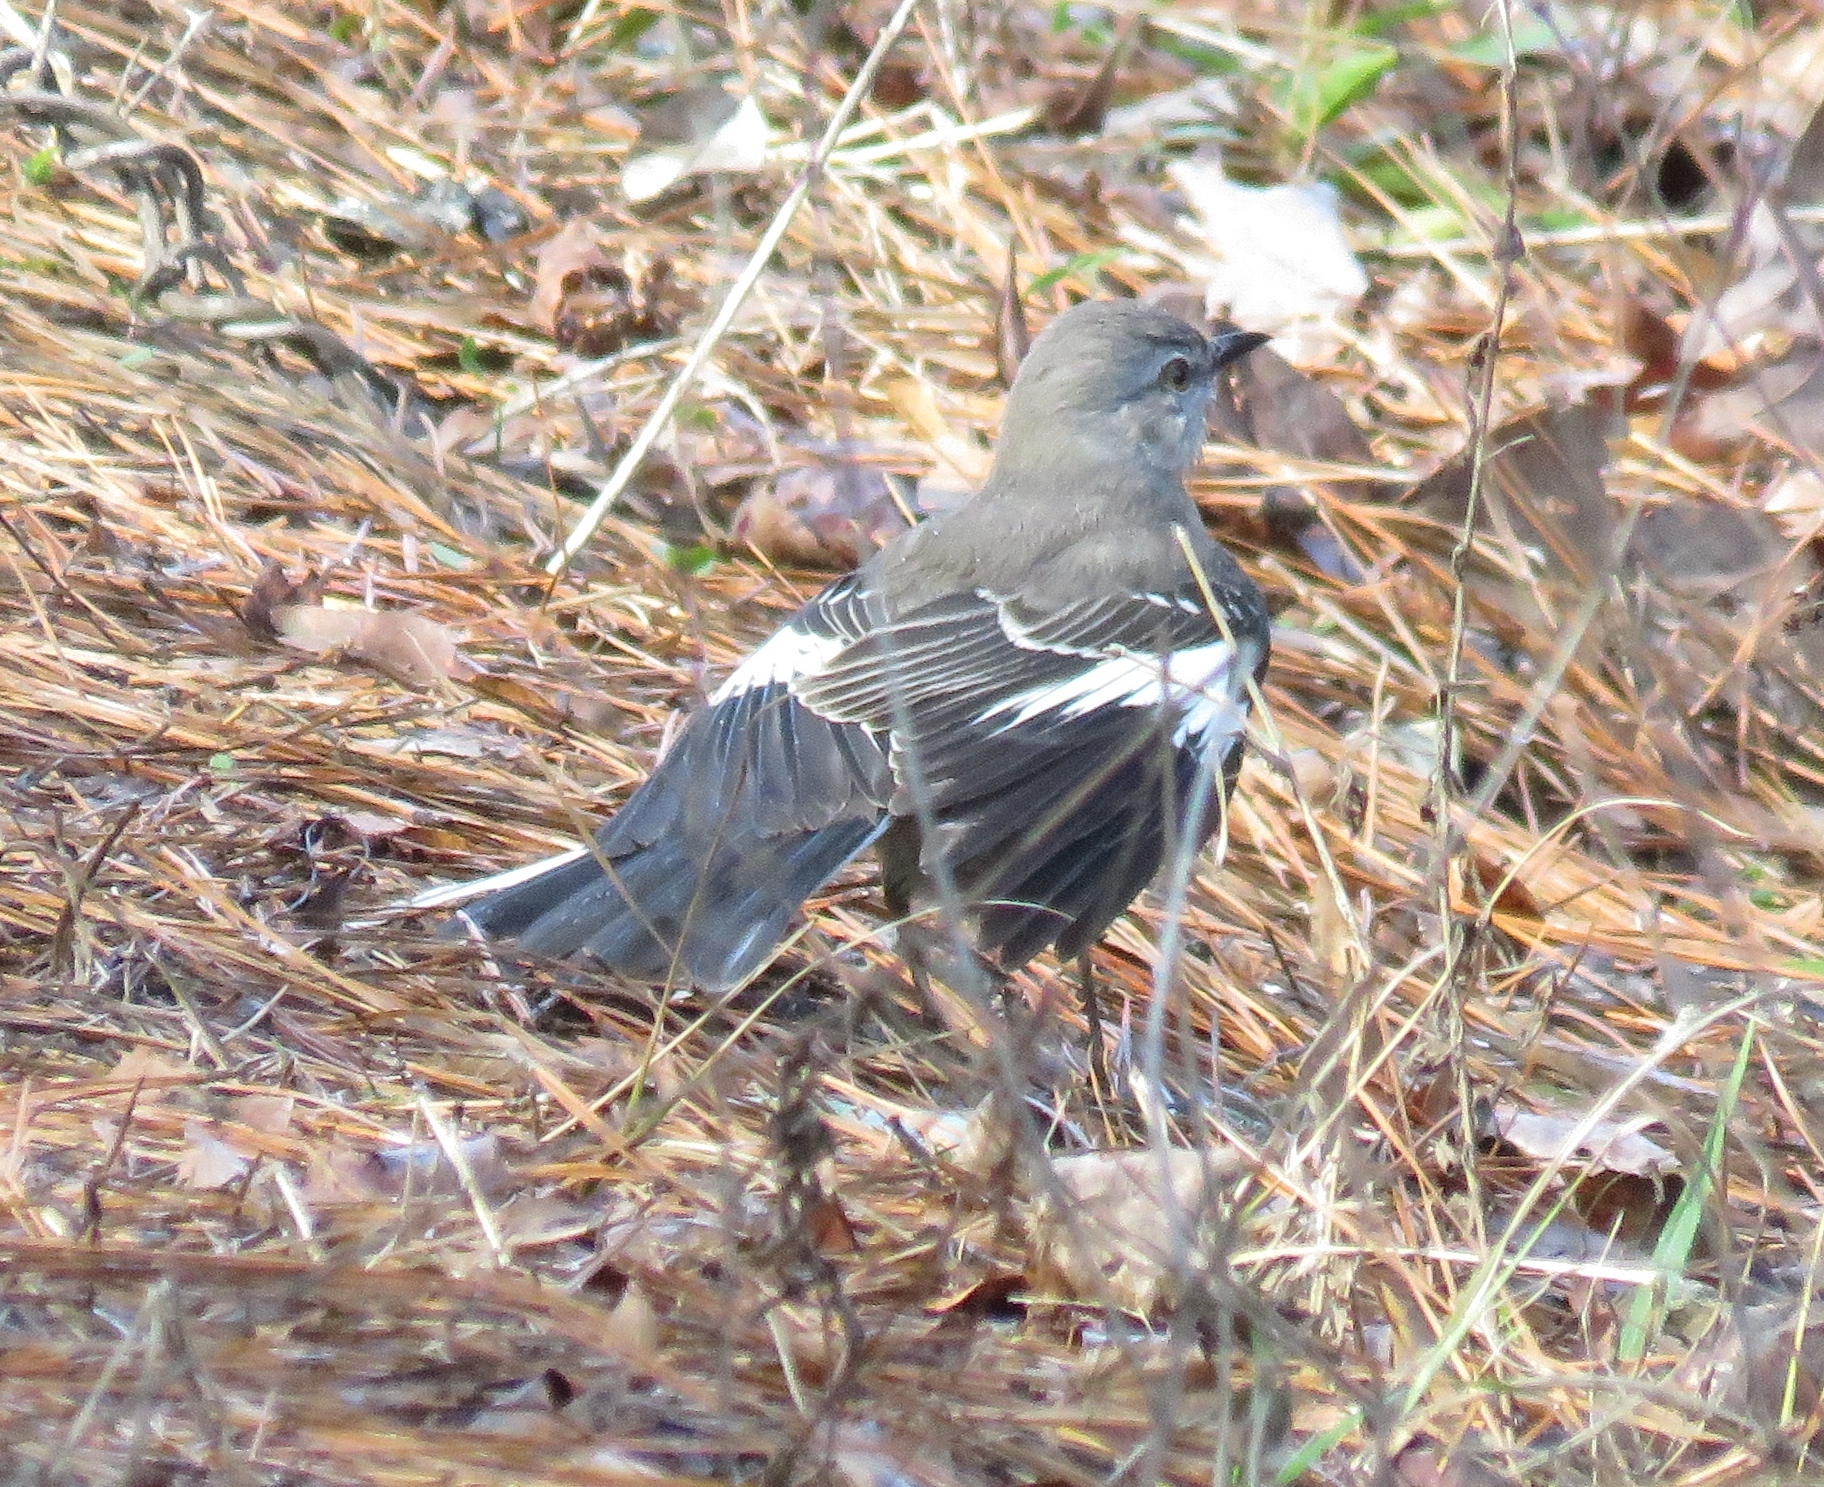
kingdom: Animalia
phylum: Chordata
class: Aves
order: Passeriformes
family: Mimidae
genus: Mimus
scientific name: Mimus polyglottos
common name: Northern mockingbird
